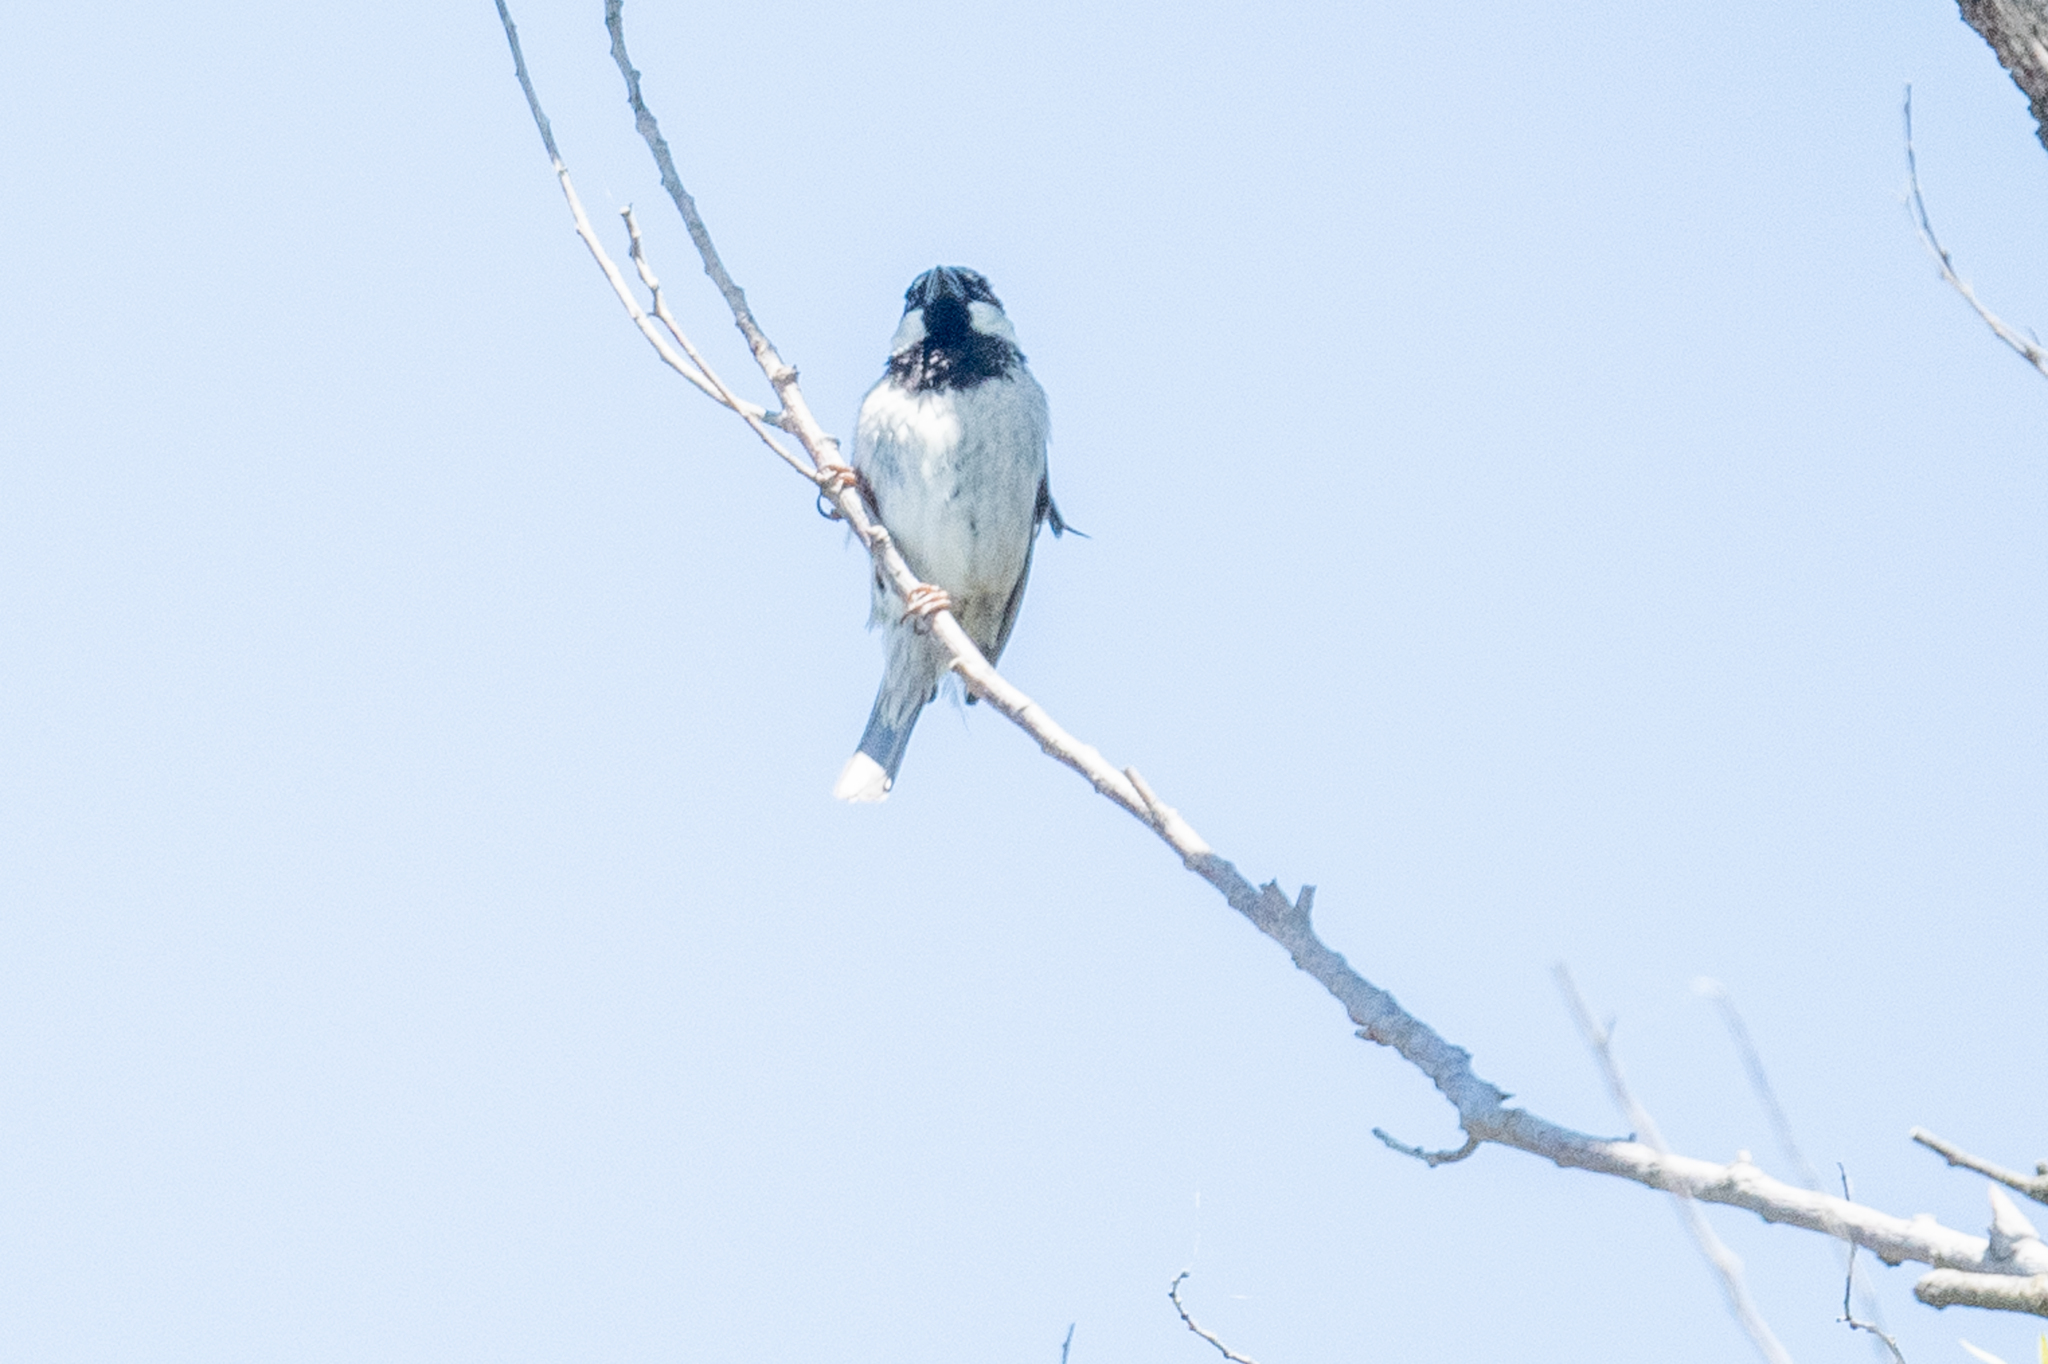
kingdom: Animalia
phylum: Chordata
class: Aves
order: Passeriformes
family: Passeridae
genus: Passer
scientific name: Passer domesticus
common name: House sparrow
